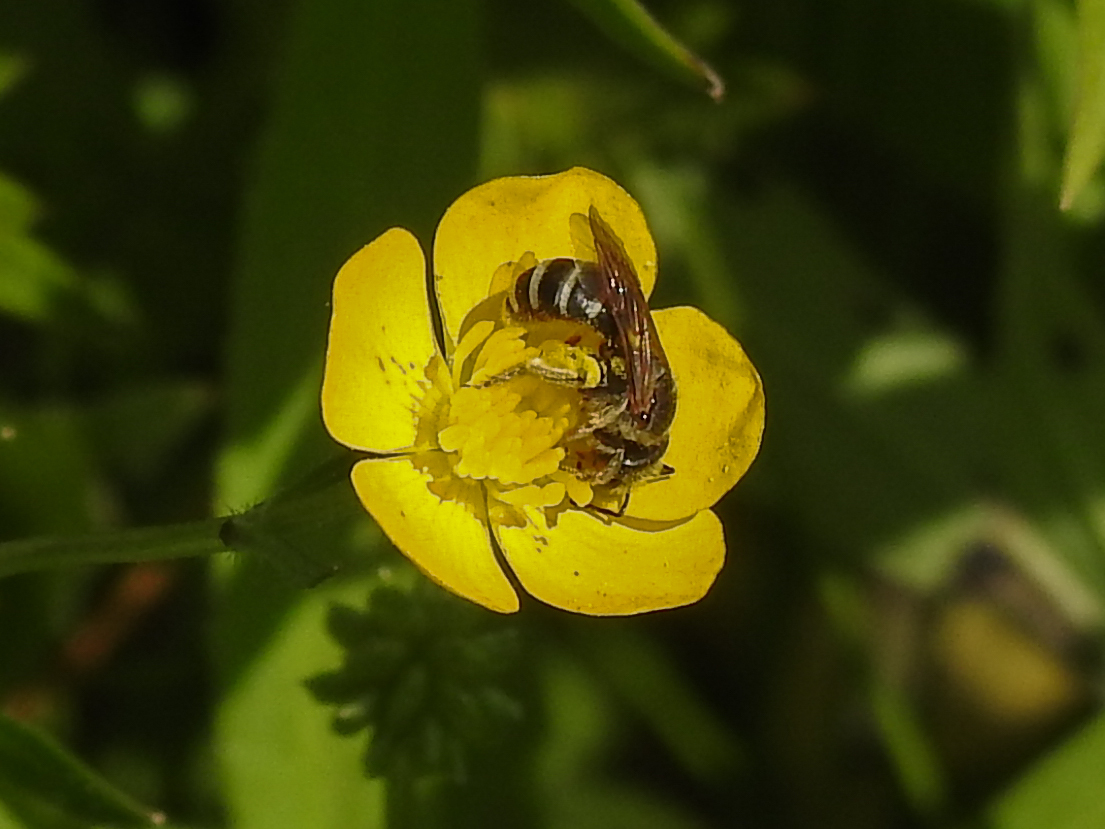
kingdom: Animalia
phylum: Arthropoda
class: Insecta
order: Hymenoptera
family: Halictidae
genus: Halictus
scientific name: Halictus ligatus
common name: Ligated furrow bee
